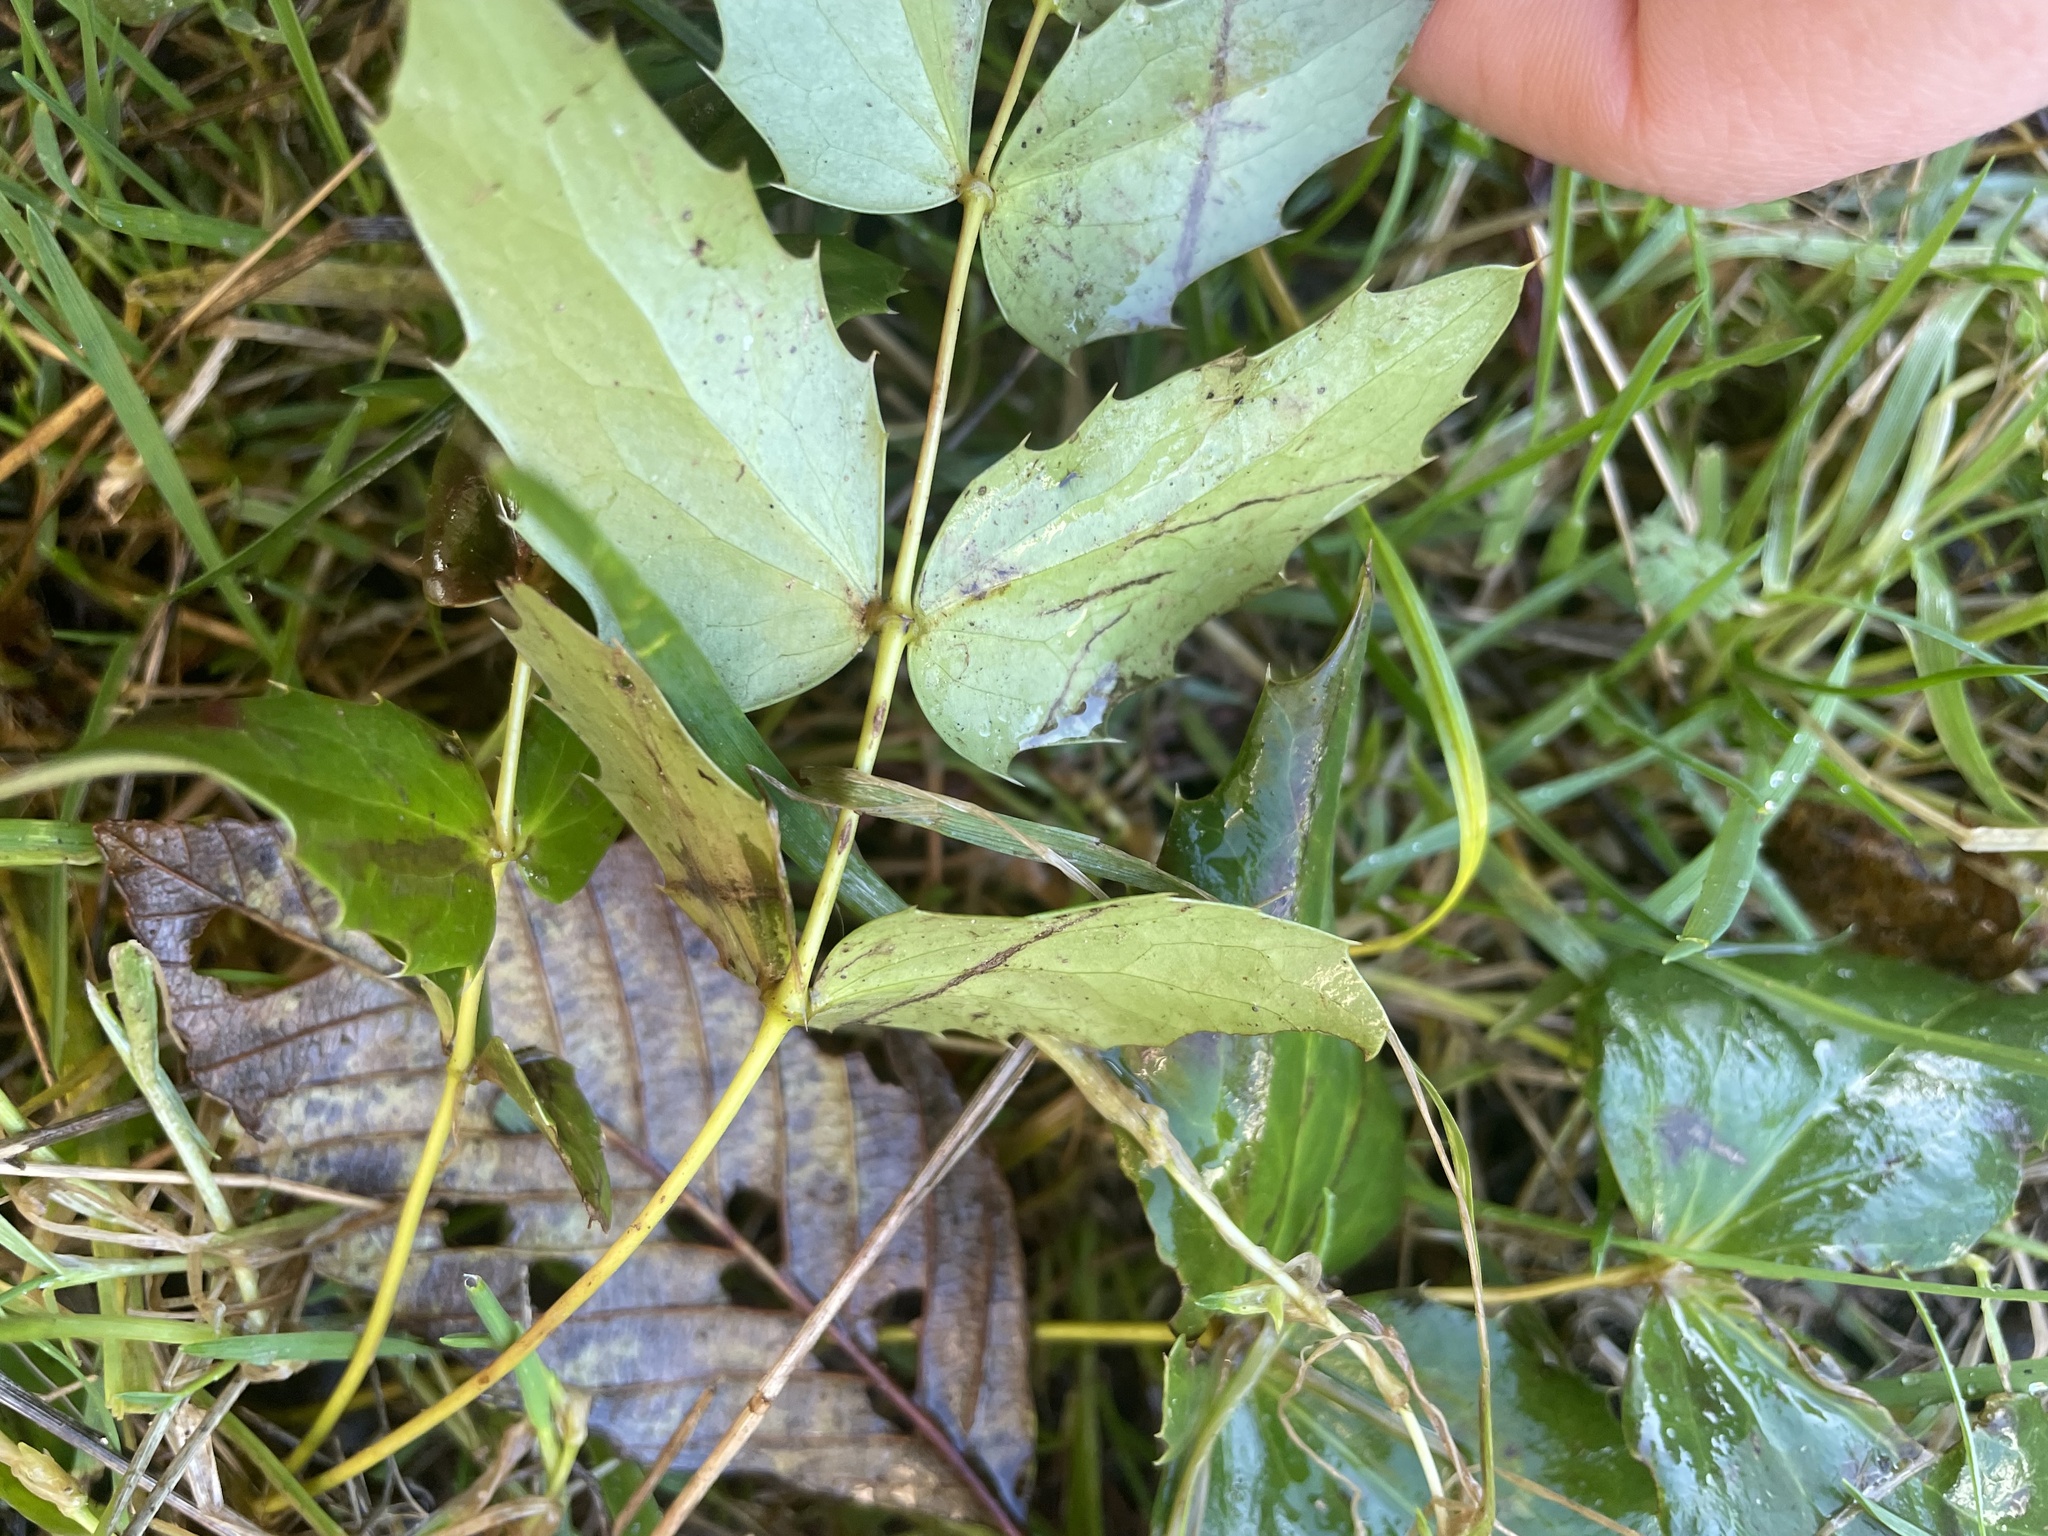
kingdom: Plantae
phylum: Tracheophyta
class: Magnoliopsida
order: Ranunculales
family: Berberidaceae
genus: Mahonia
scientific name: Mahonia nervosa
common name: Cascade oregon-grape
